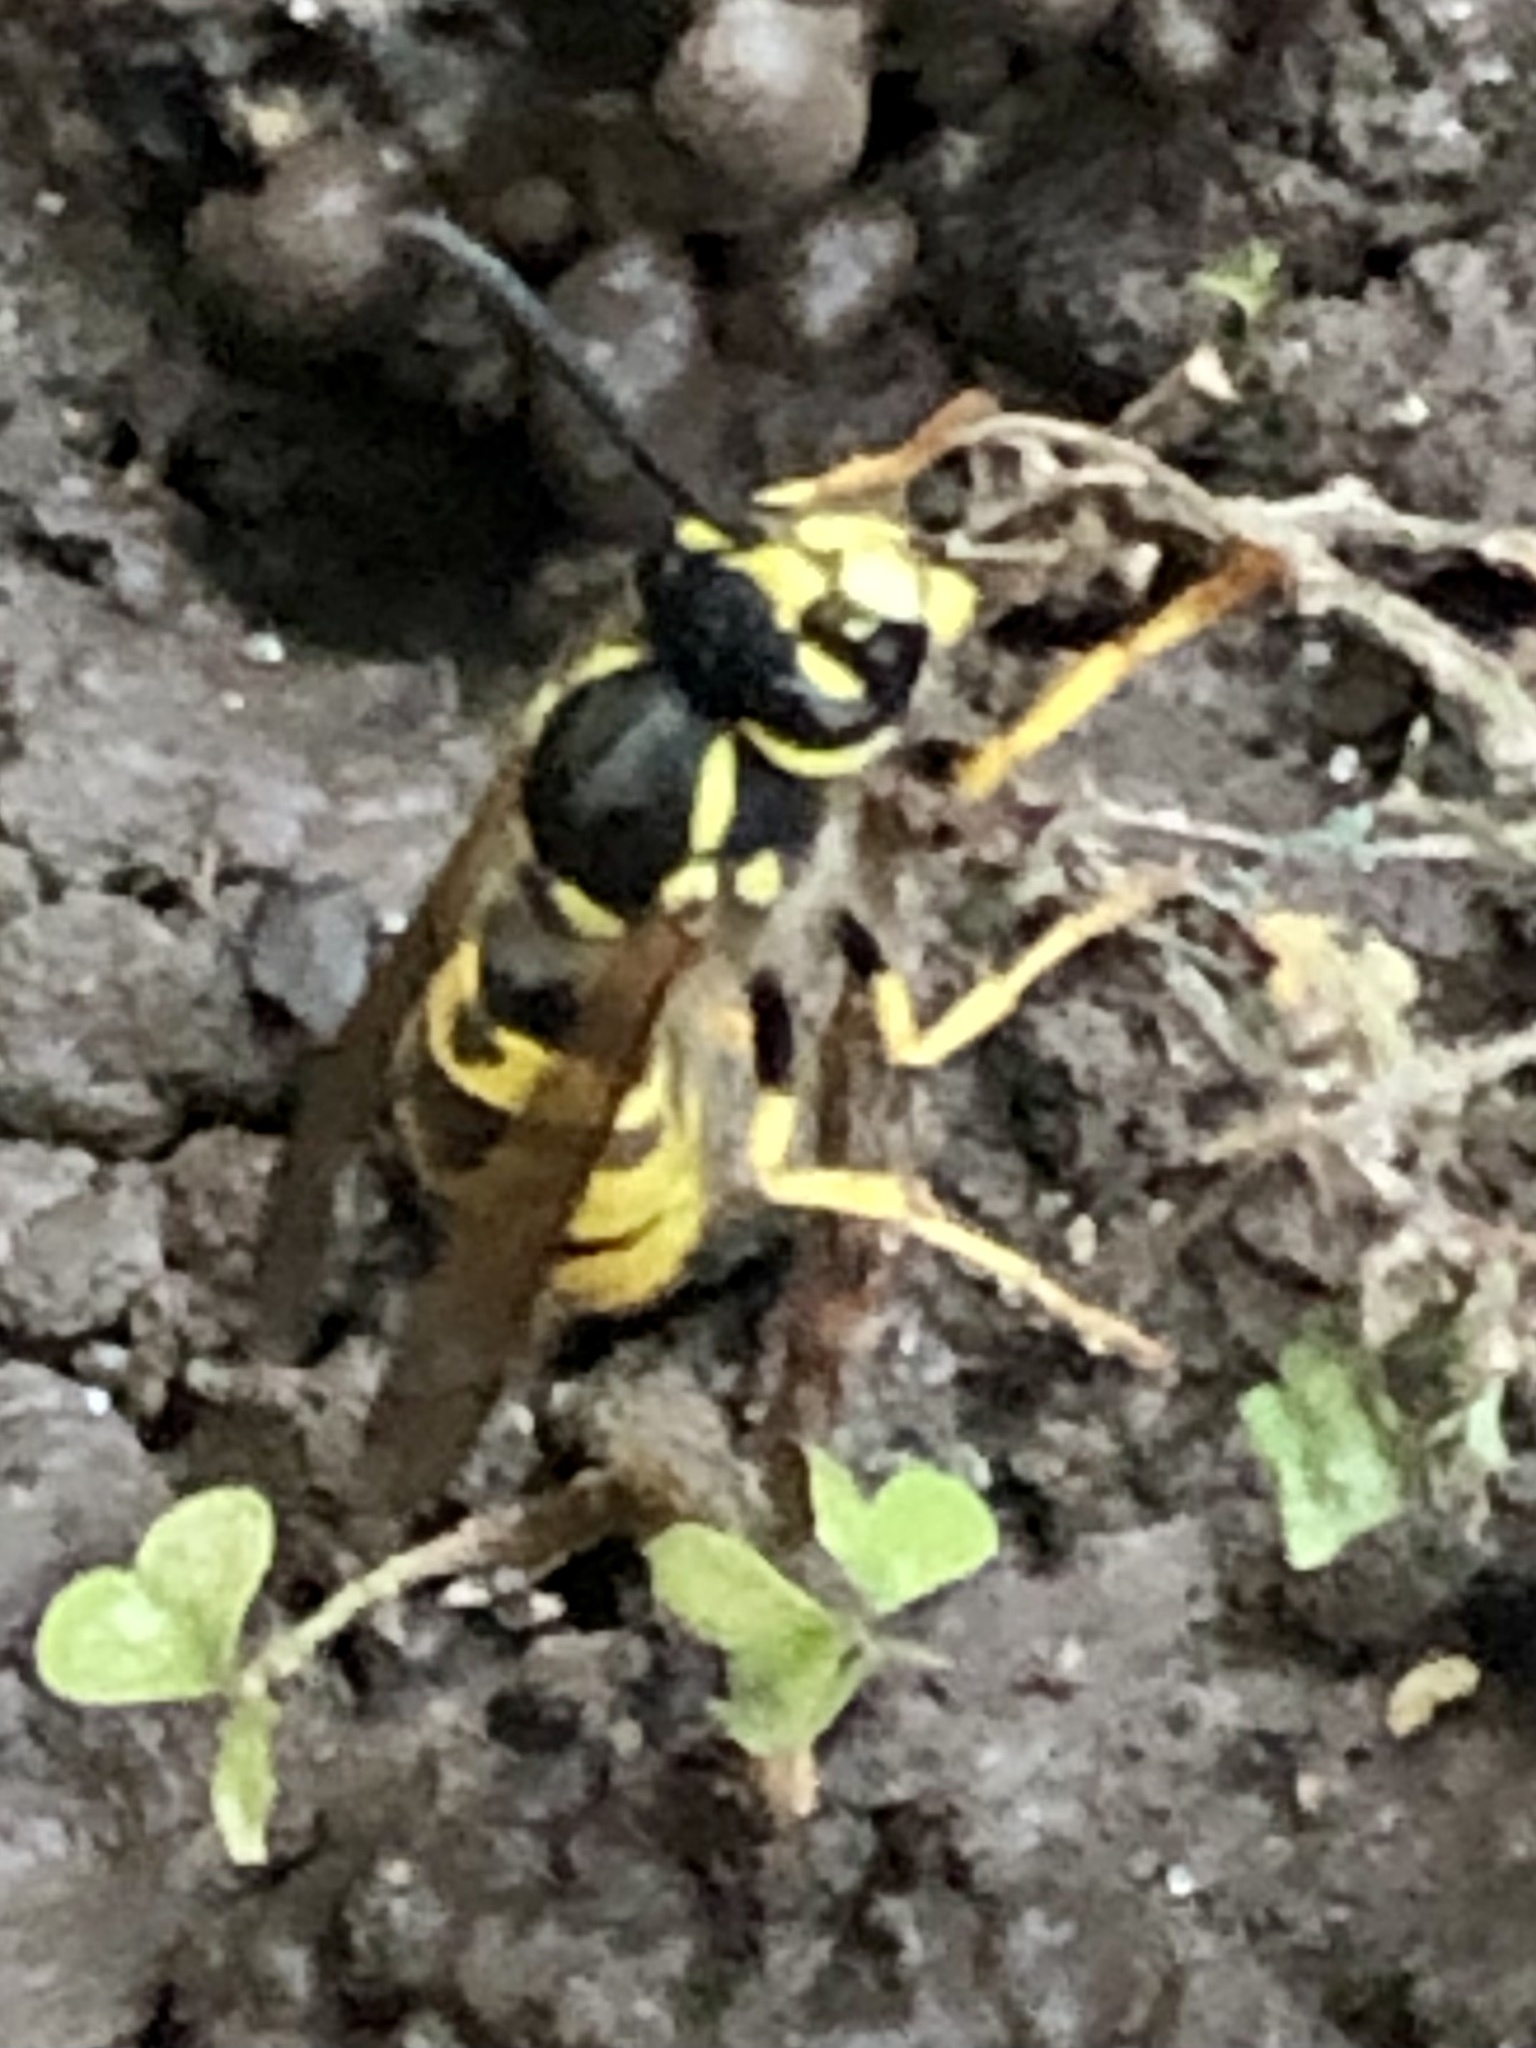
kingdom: Animalia
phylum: Arthropoda
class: Insecta
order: Hymenoptera
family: Vespidae
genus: Vespula
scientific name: Vespula germanica
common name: German wasp
